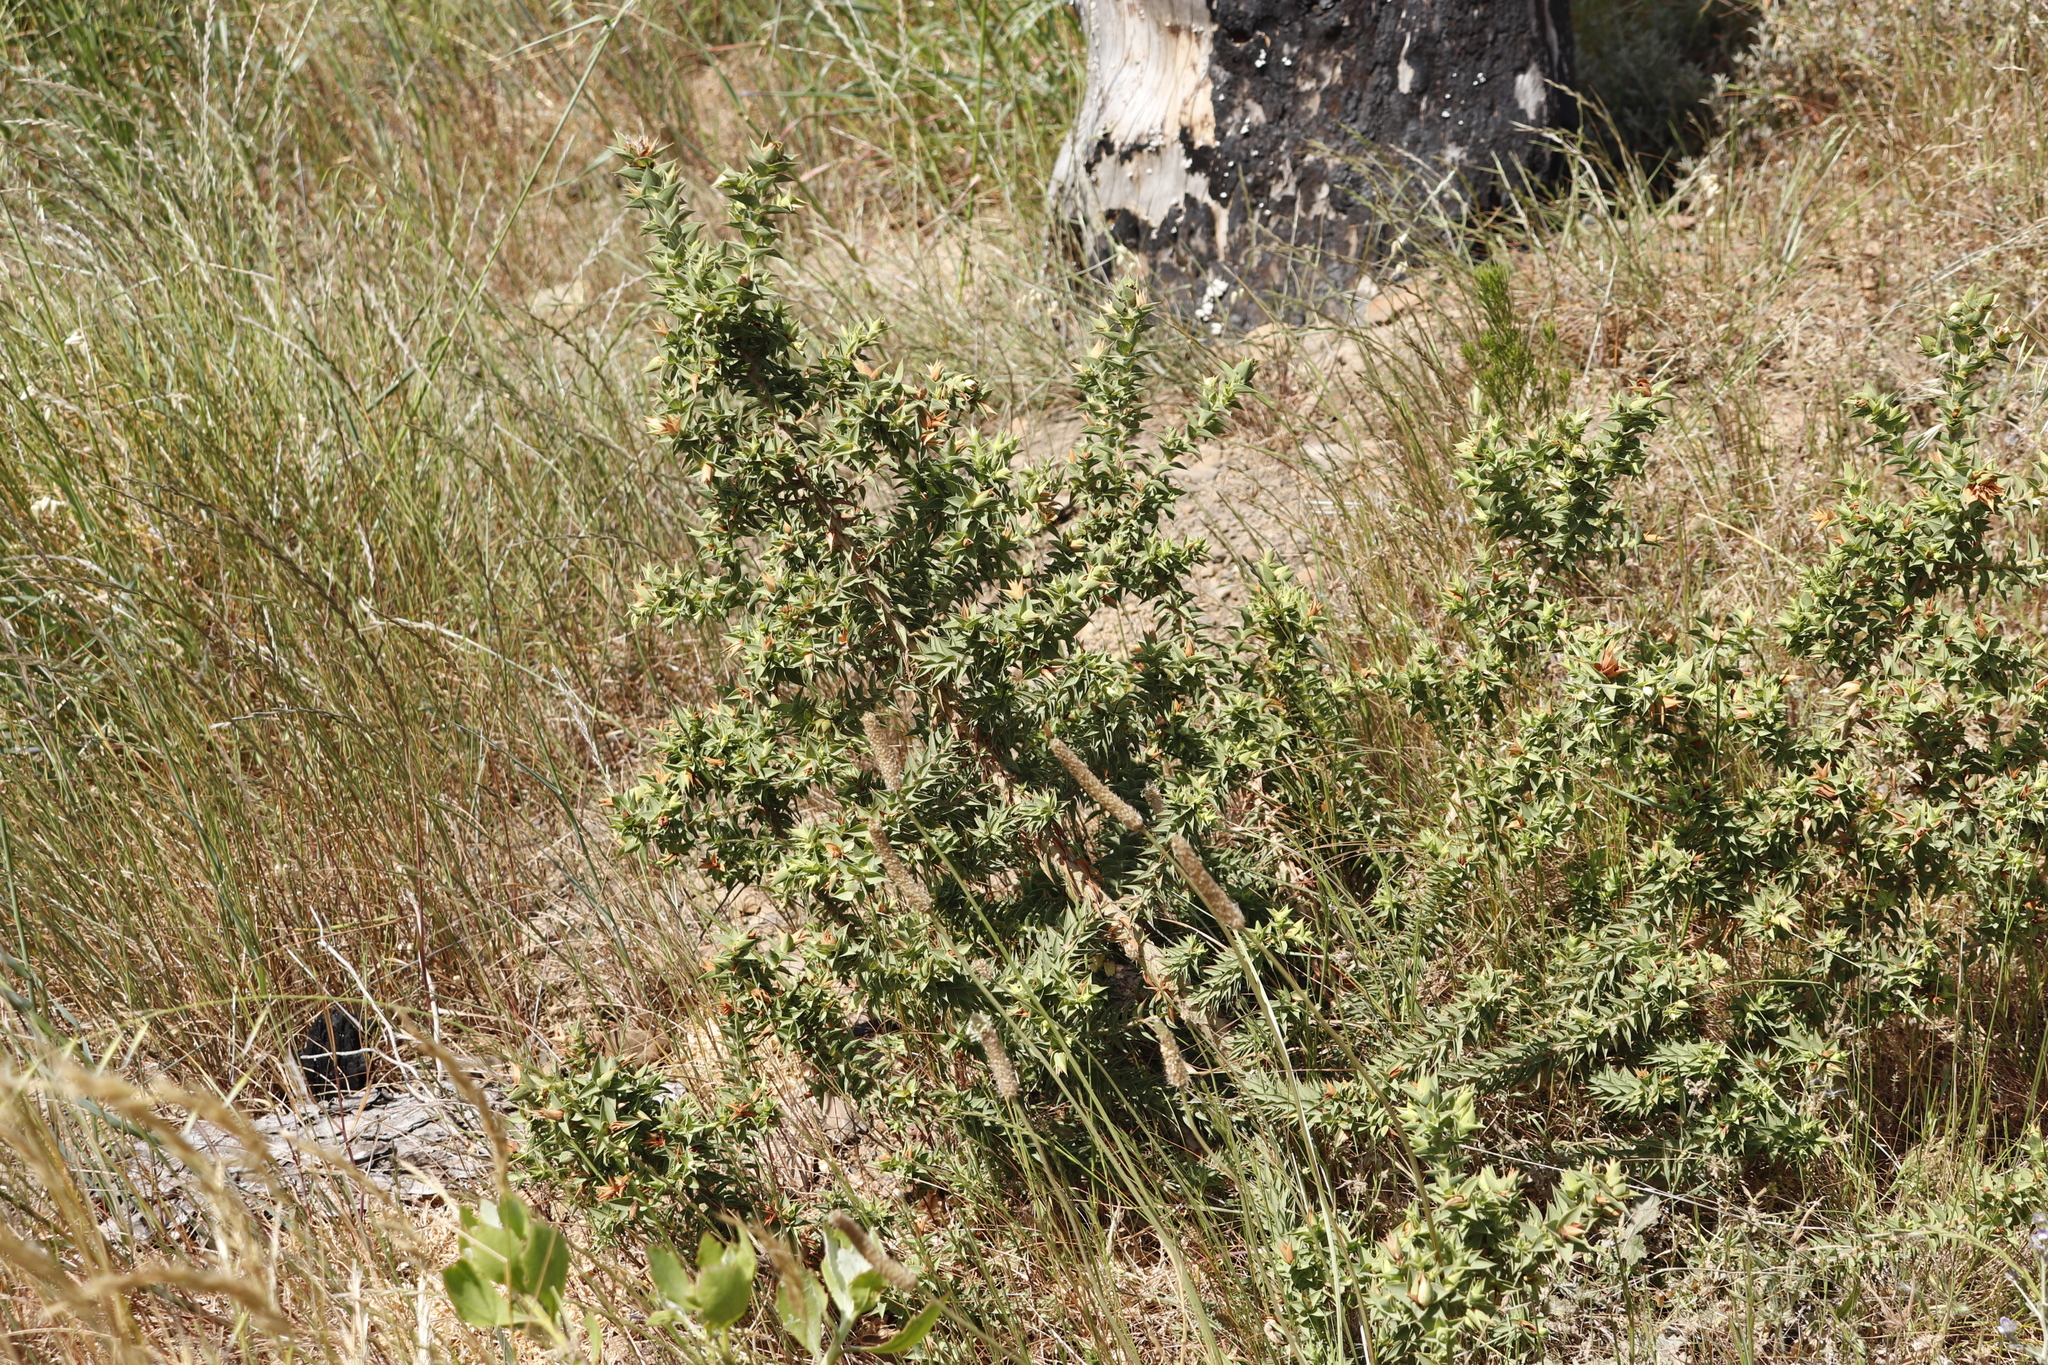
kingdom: Plantae
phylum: Tracheophyta
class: Magnoliopsida
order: Fabales
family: Fabaceae
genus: Aspalathus
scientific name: Aspalathus cordata
